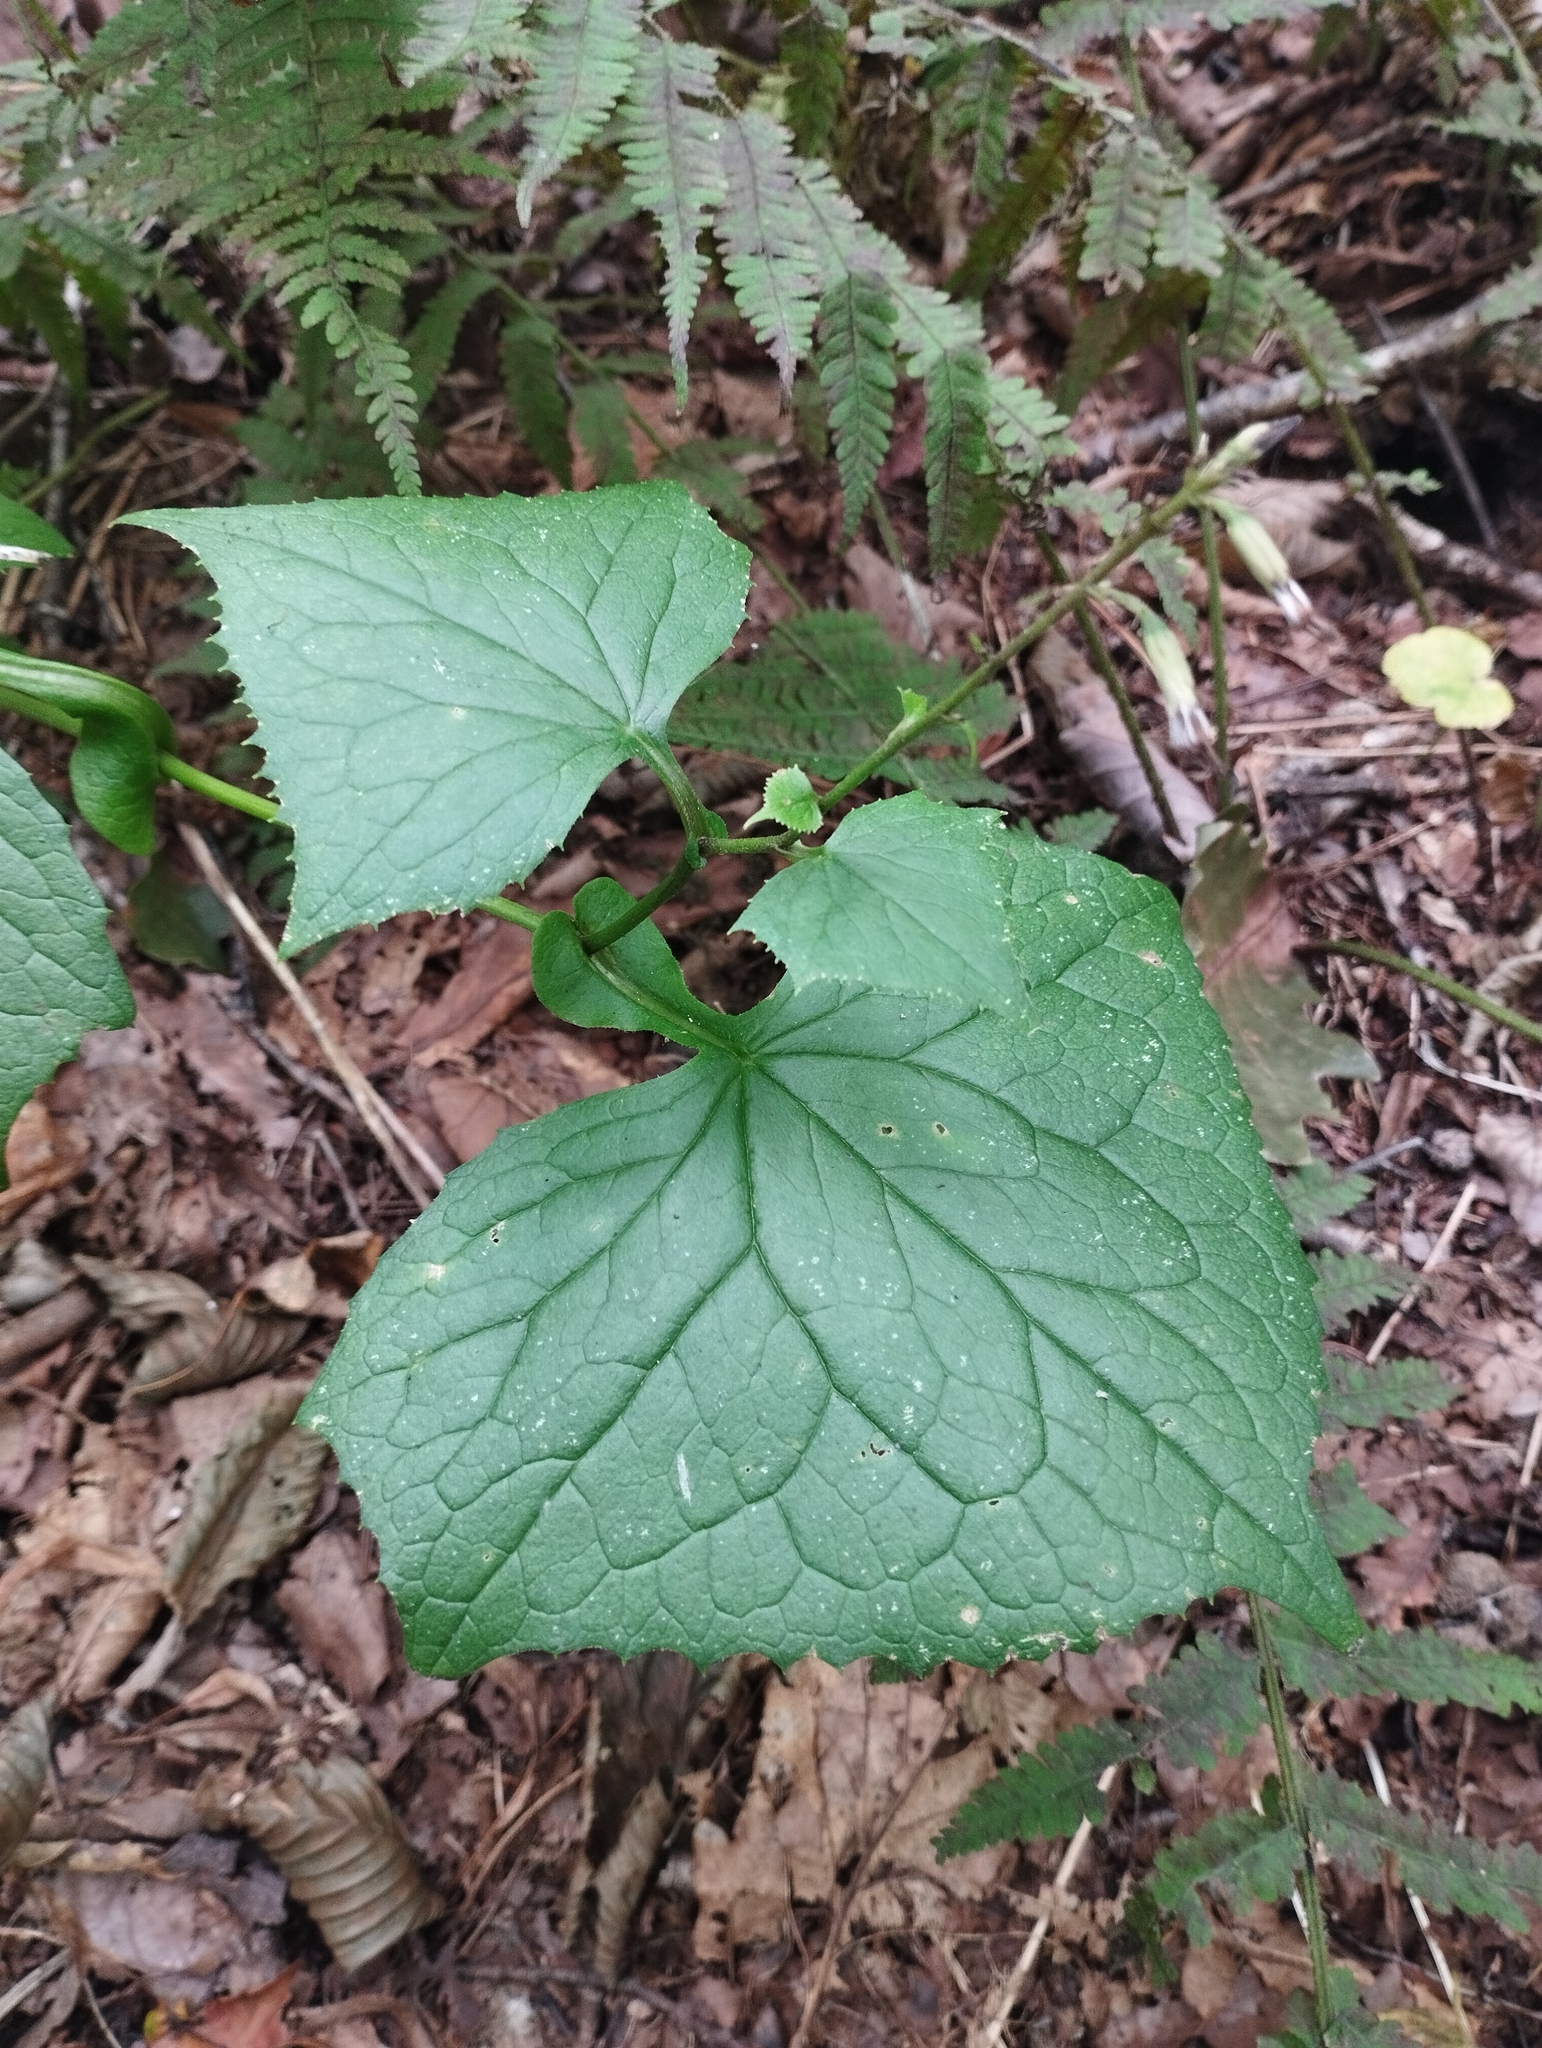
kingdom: Plantae
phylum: Tracheophyta
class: Magnoliopsida
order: Asterales
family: Asteraceae
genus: Parasenecio
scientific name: Parasenecio praetermissus
